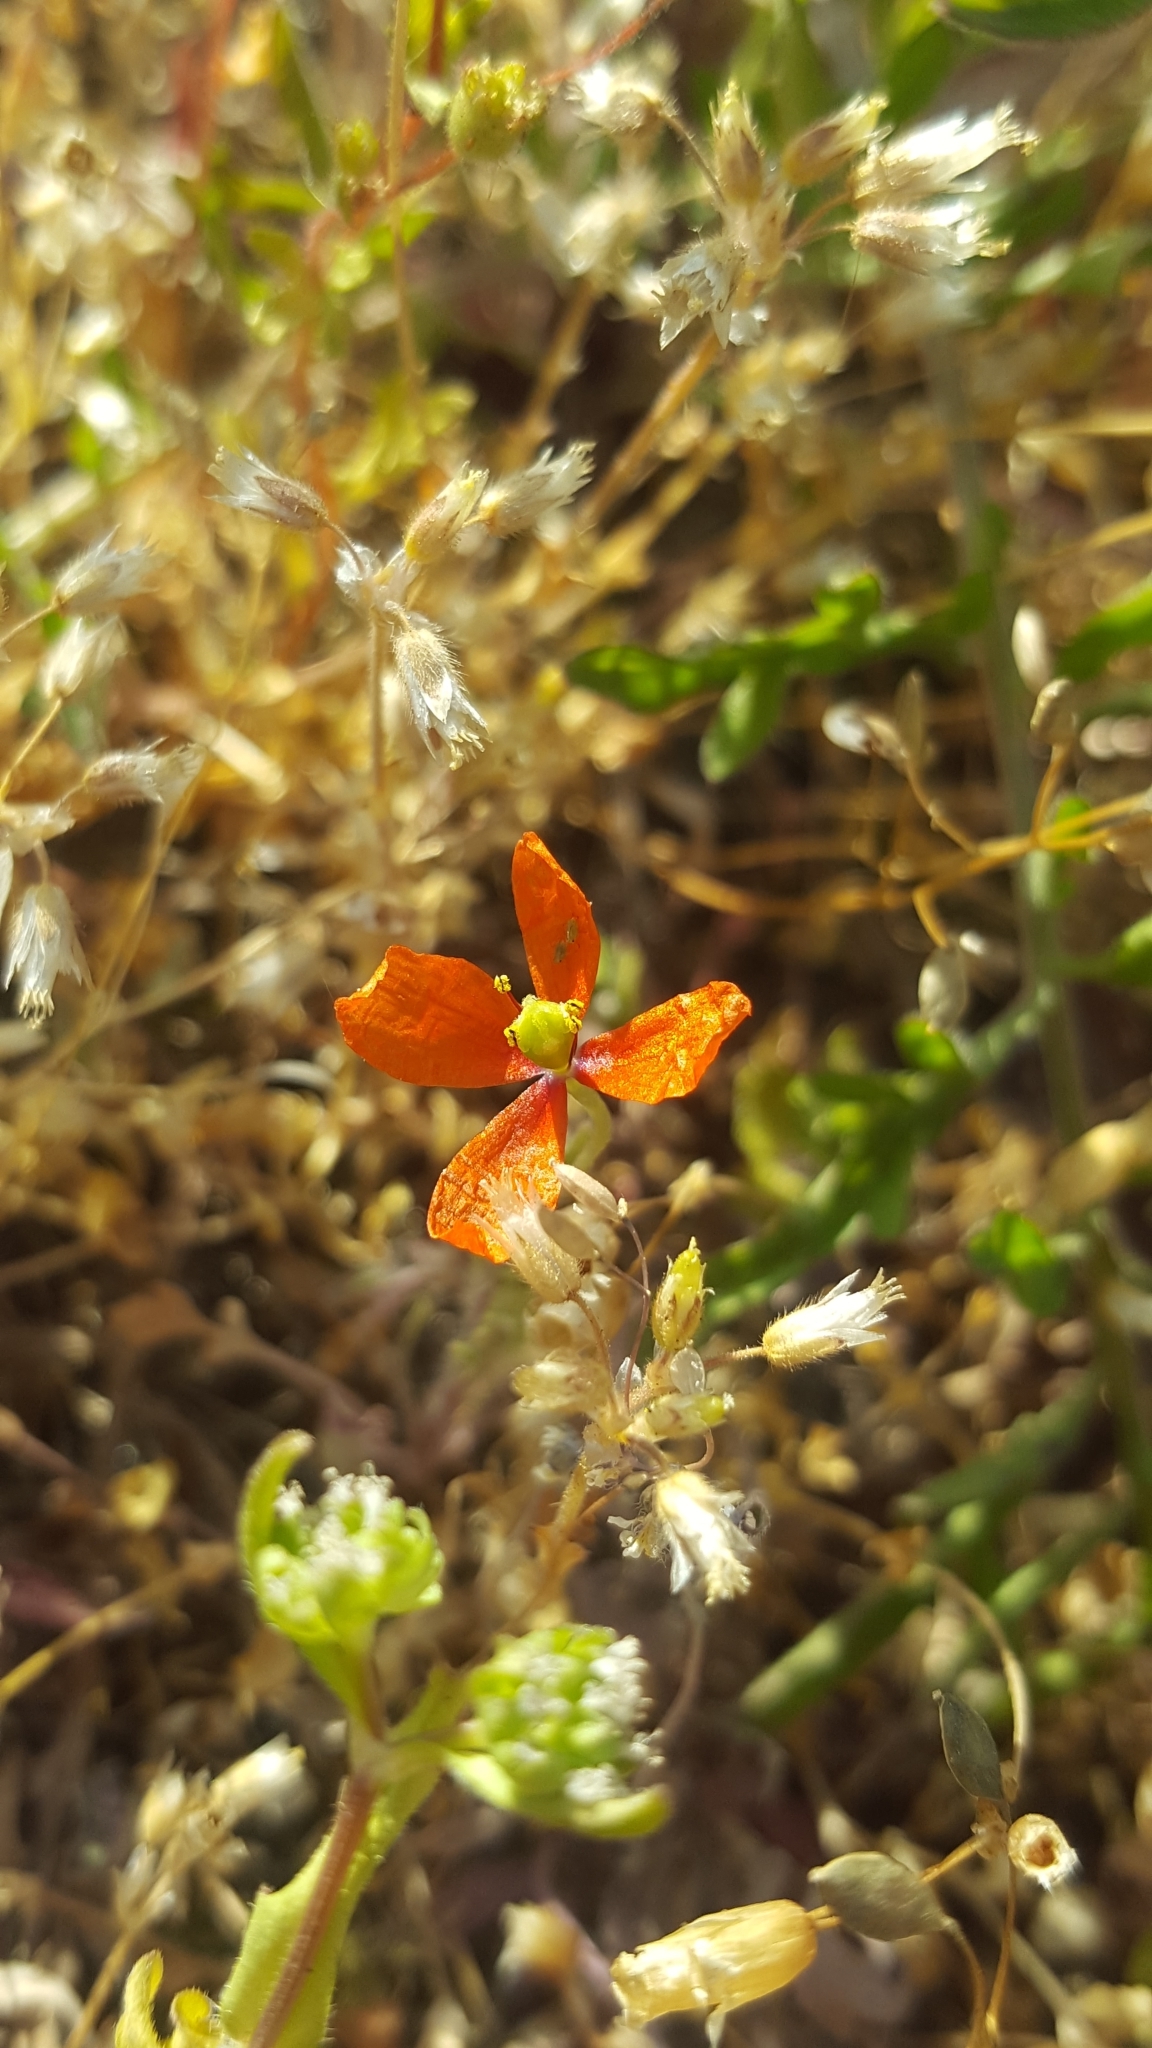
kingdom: Plantae
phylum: Tracheophyta
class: Magnoliopsida
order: Ranunculales
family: Papaveraceae
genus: Papaver
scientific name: Papaver dubium
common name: Long-headed poppy
